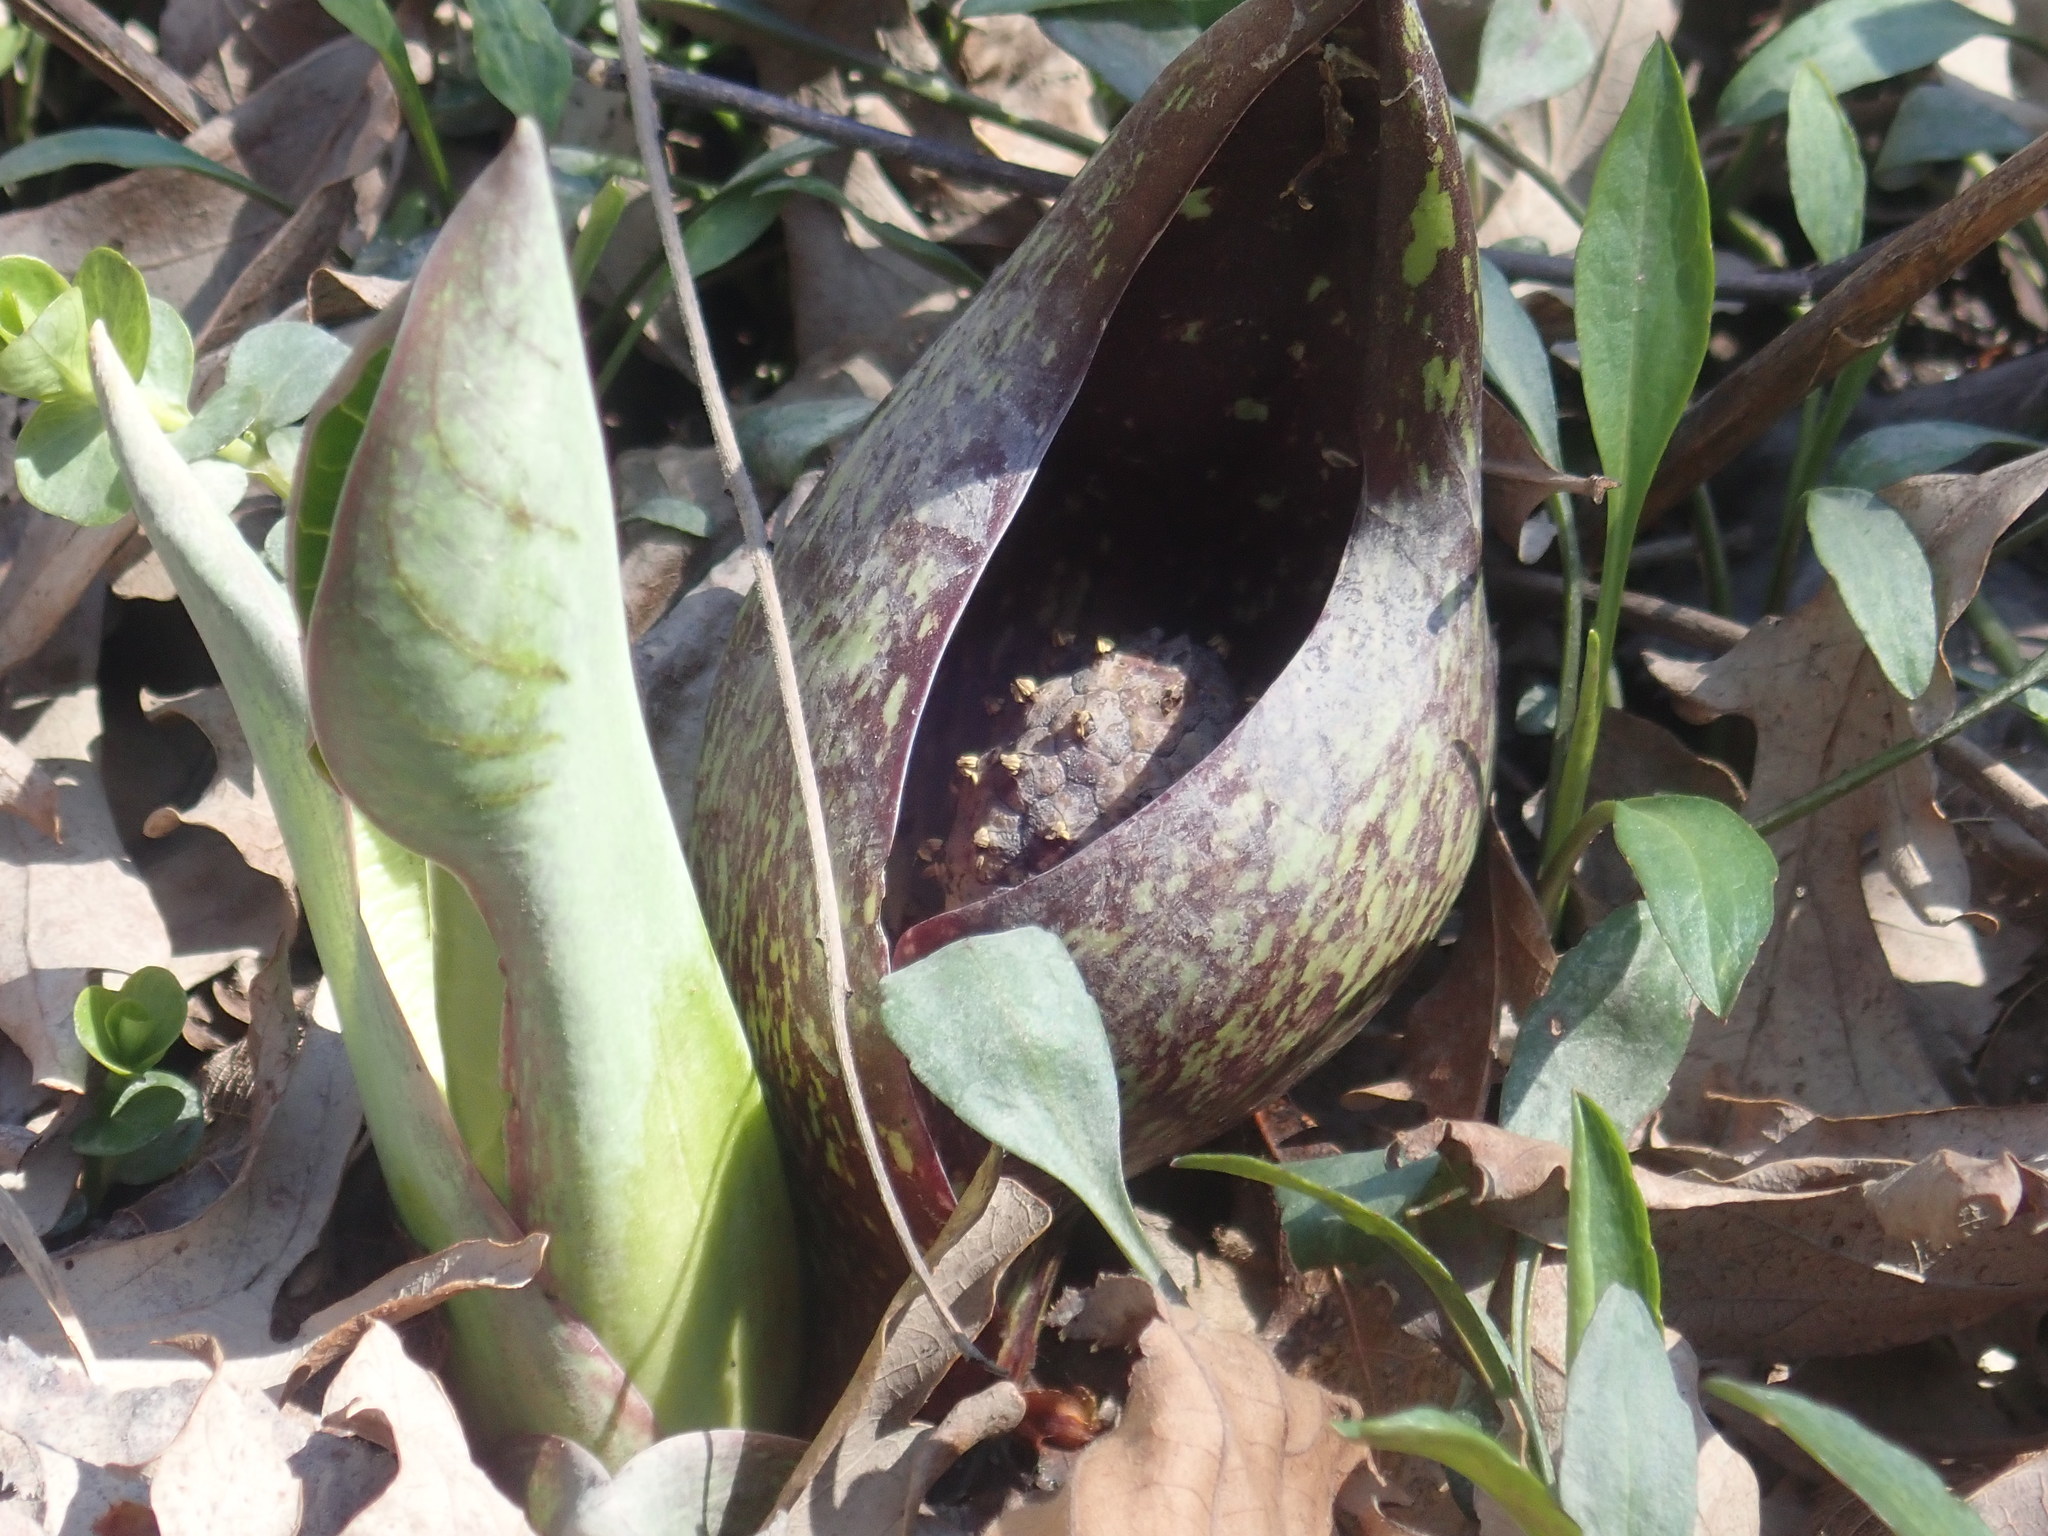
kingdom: Plantae
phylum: Tracheophyta
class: Liliopsida
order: Alismatales
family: Araceae
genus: Symplocarpus
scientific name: Symplocarpus foetidus
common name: Eastern skunk cabbage
